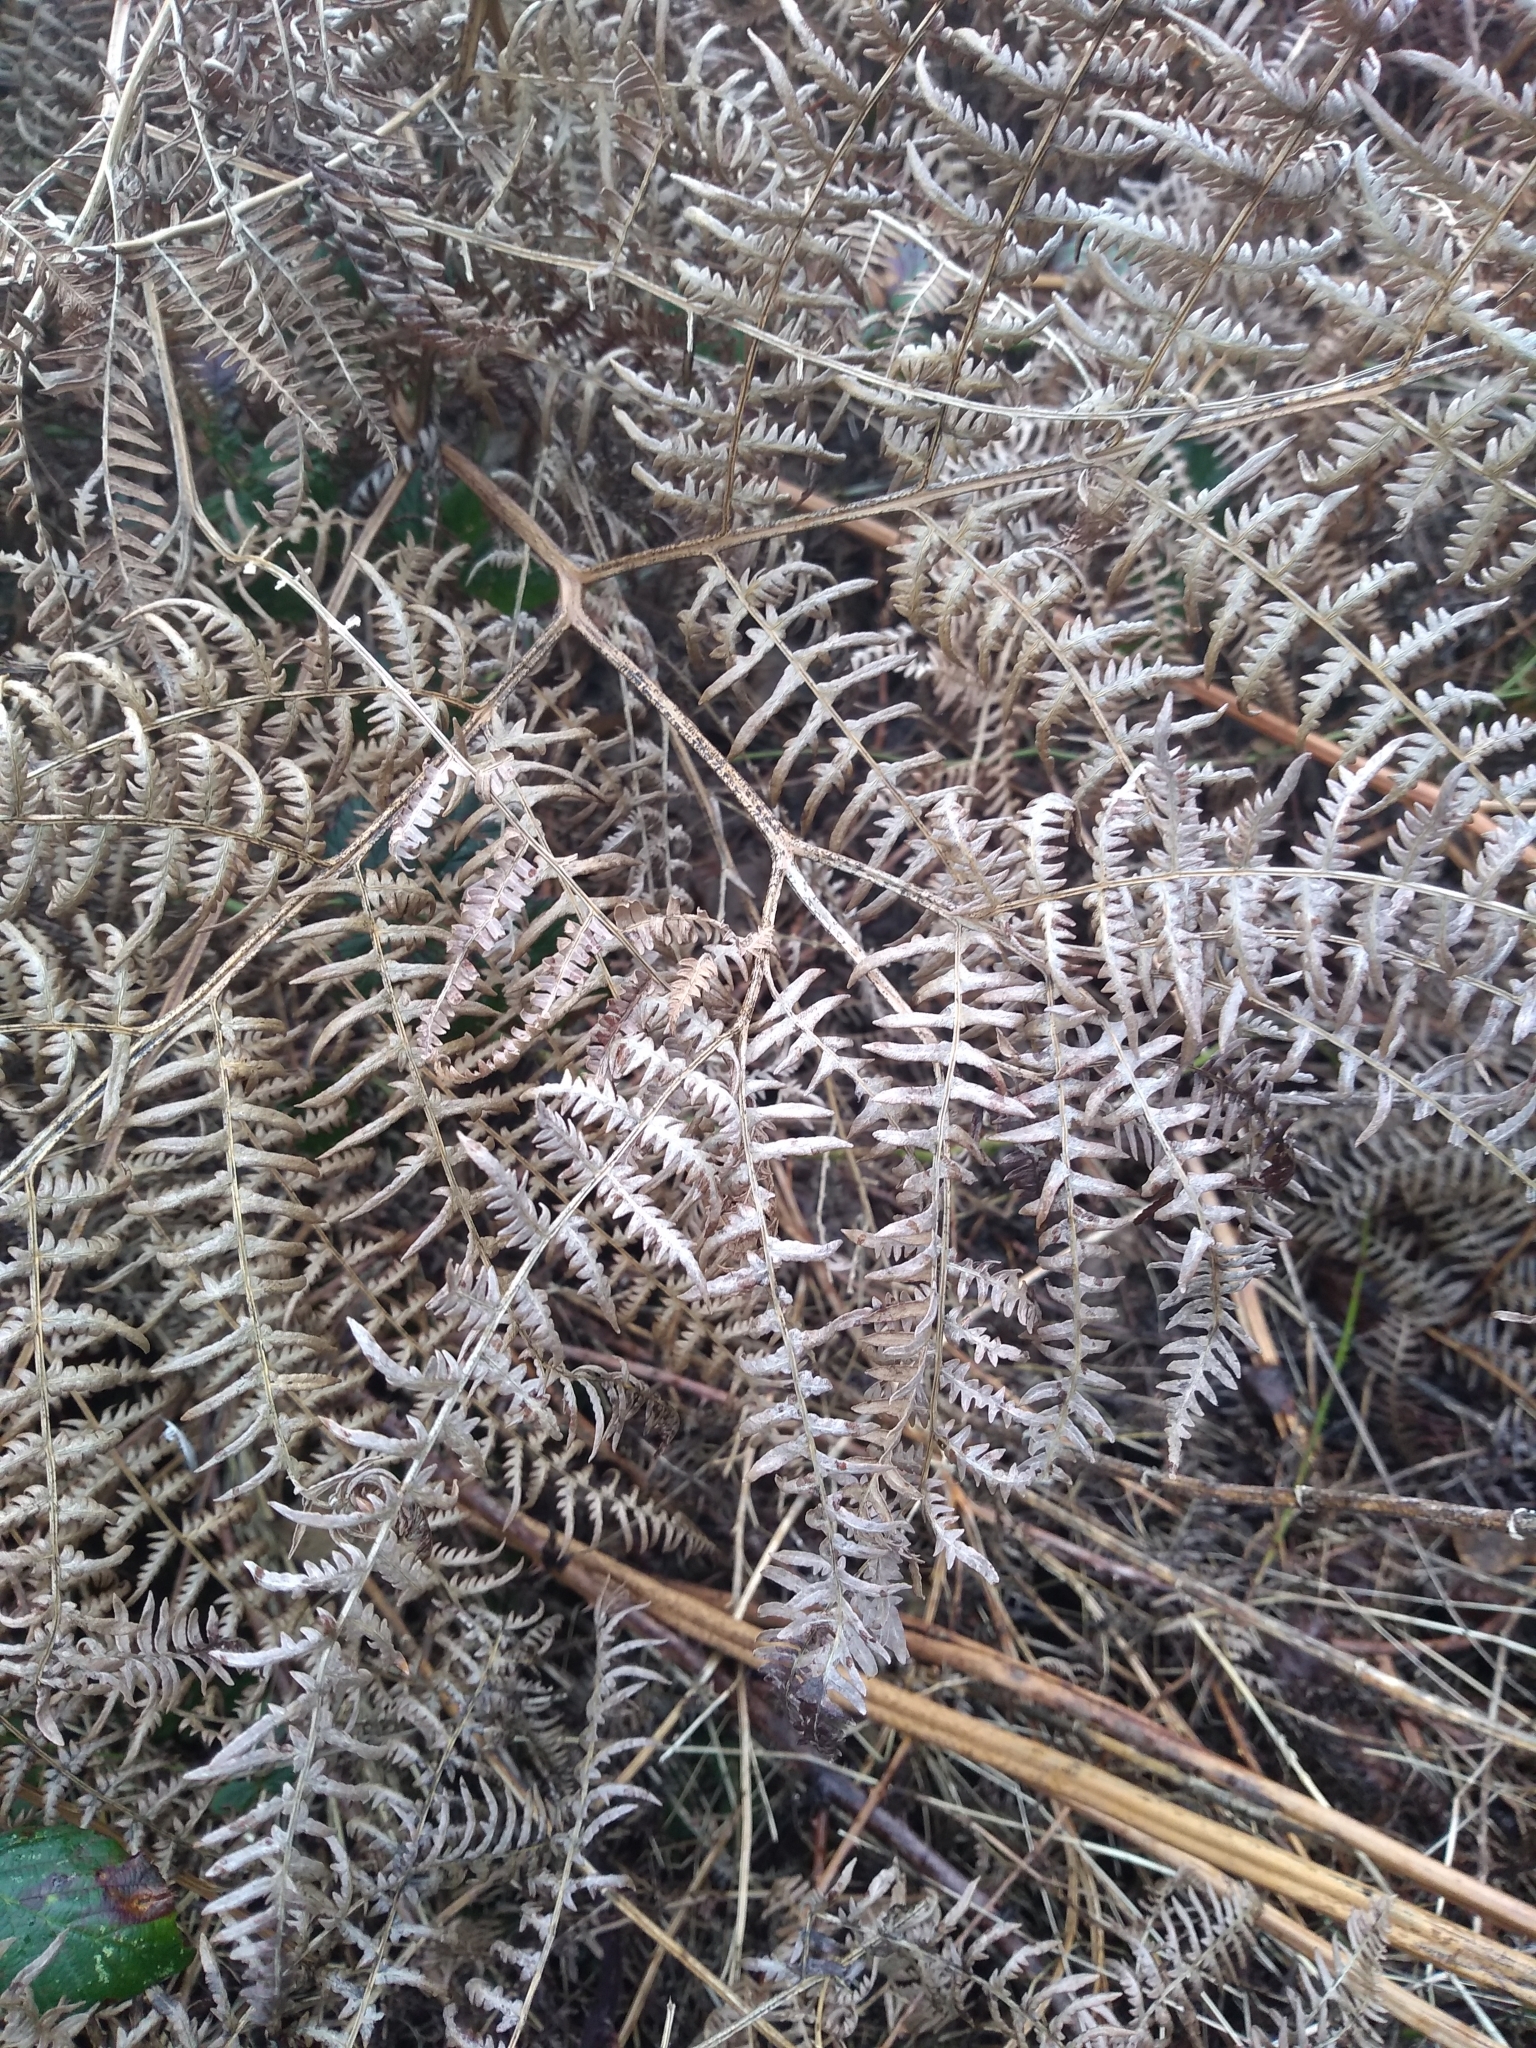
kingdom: Plantae
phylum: Tracheophyta
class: Polypodiopsida
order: Polypodiales
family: Dennstaedtiaceae
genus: Pteridium
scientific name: Pteridium aquilinum
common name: Bracken
